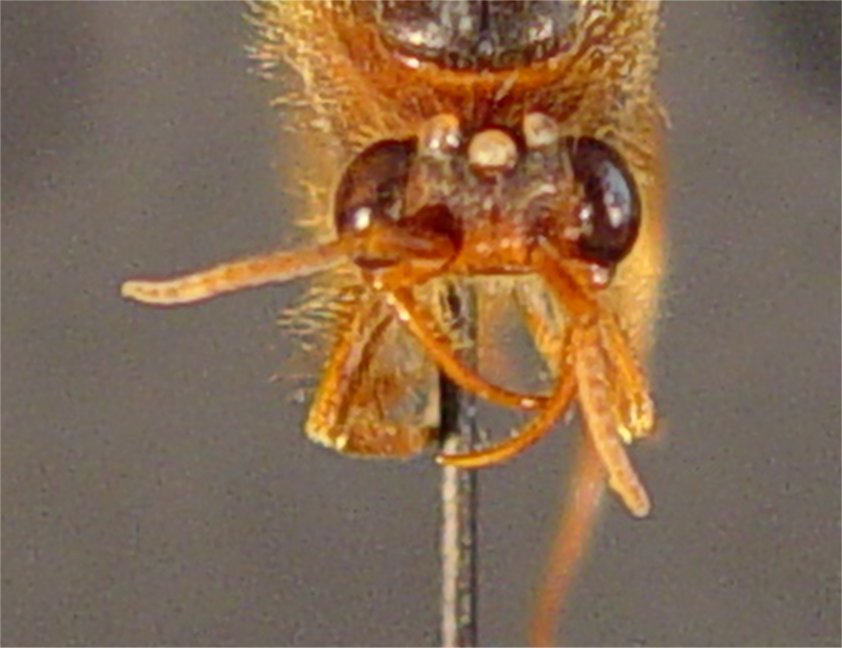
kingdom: Animalia
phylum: Arthropoda
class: Insecta
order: Hymenoptera
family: Formicidae
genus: Cheliomyrmex
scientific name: Cheliomyrmex morosus
